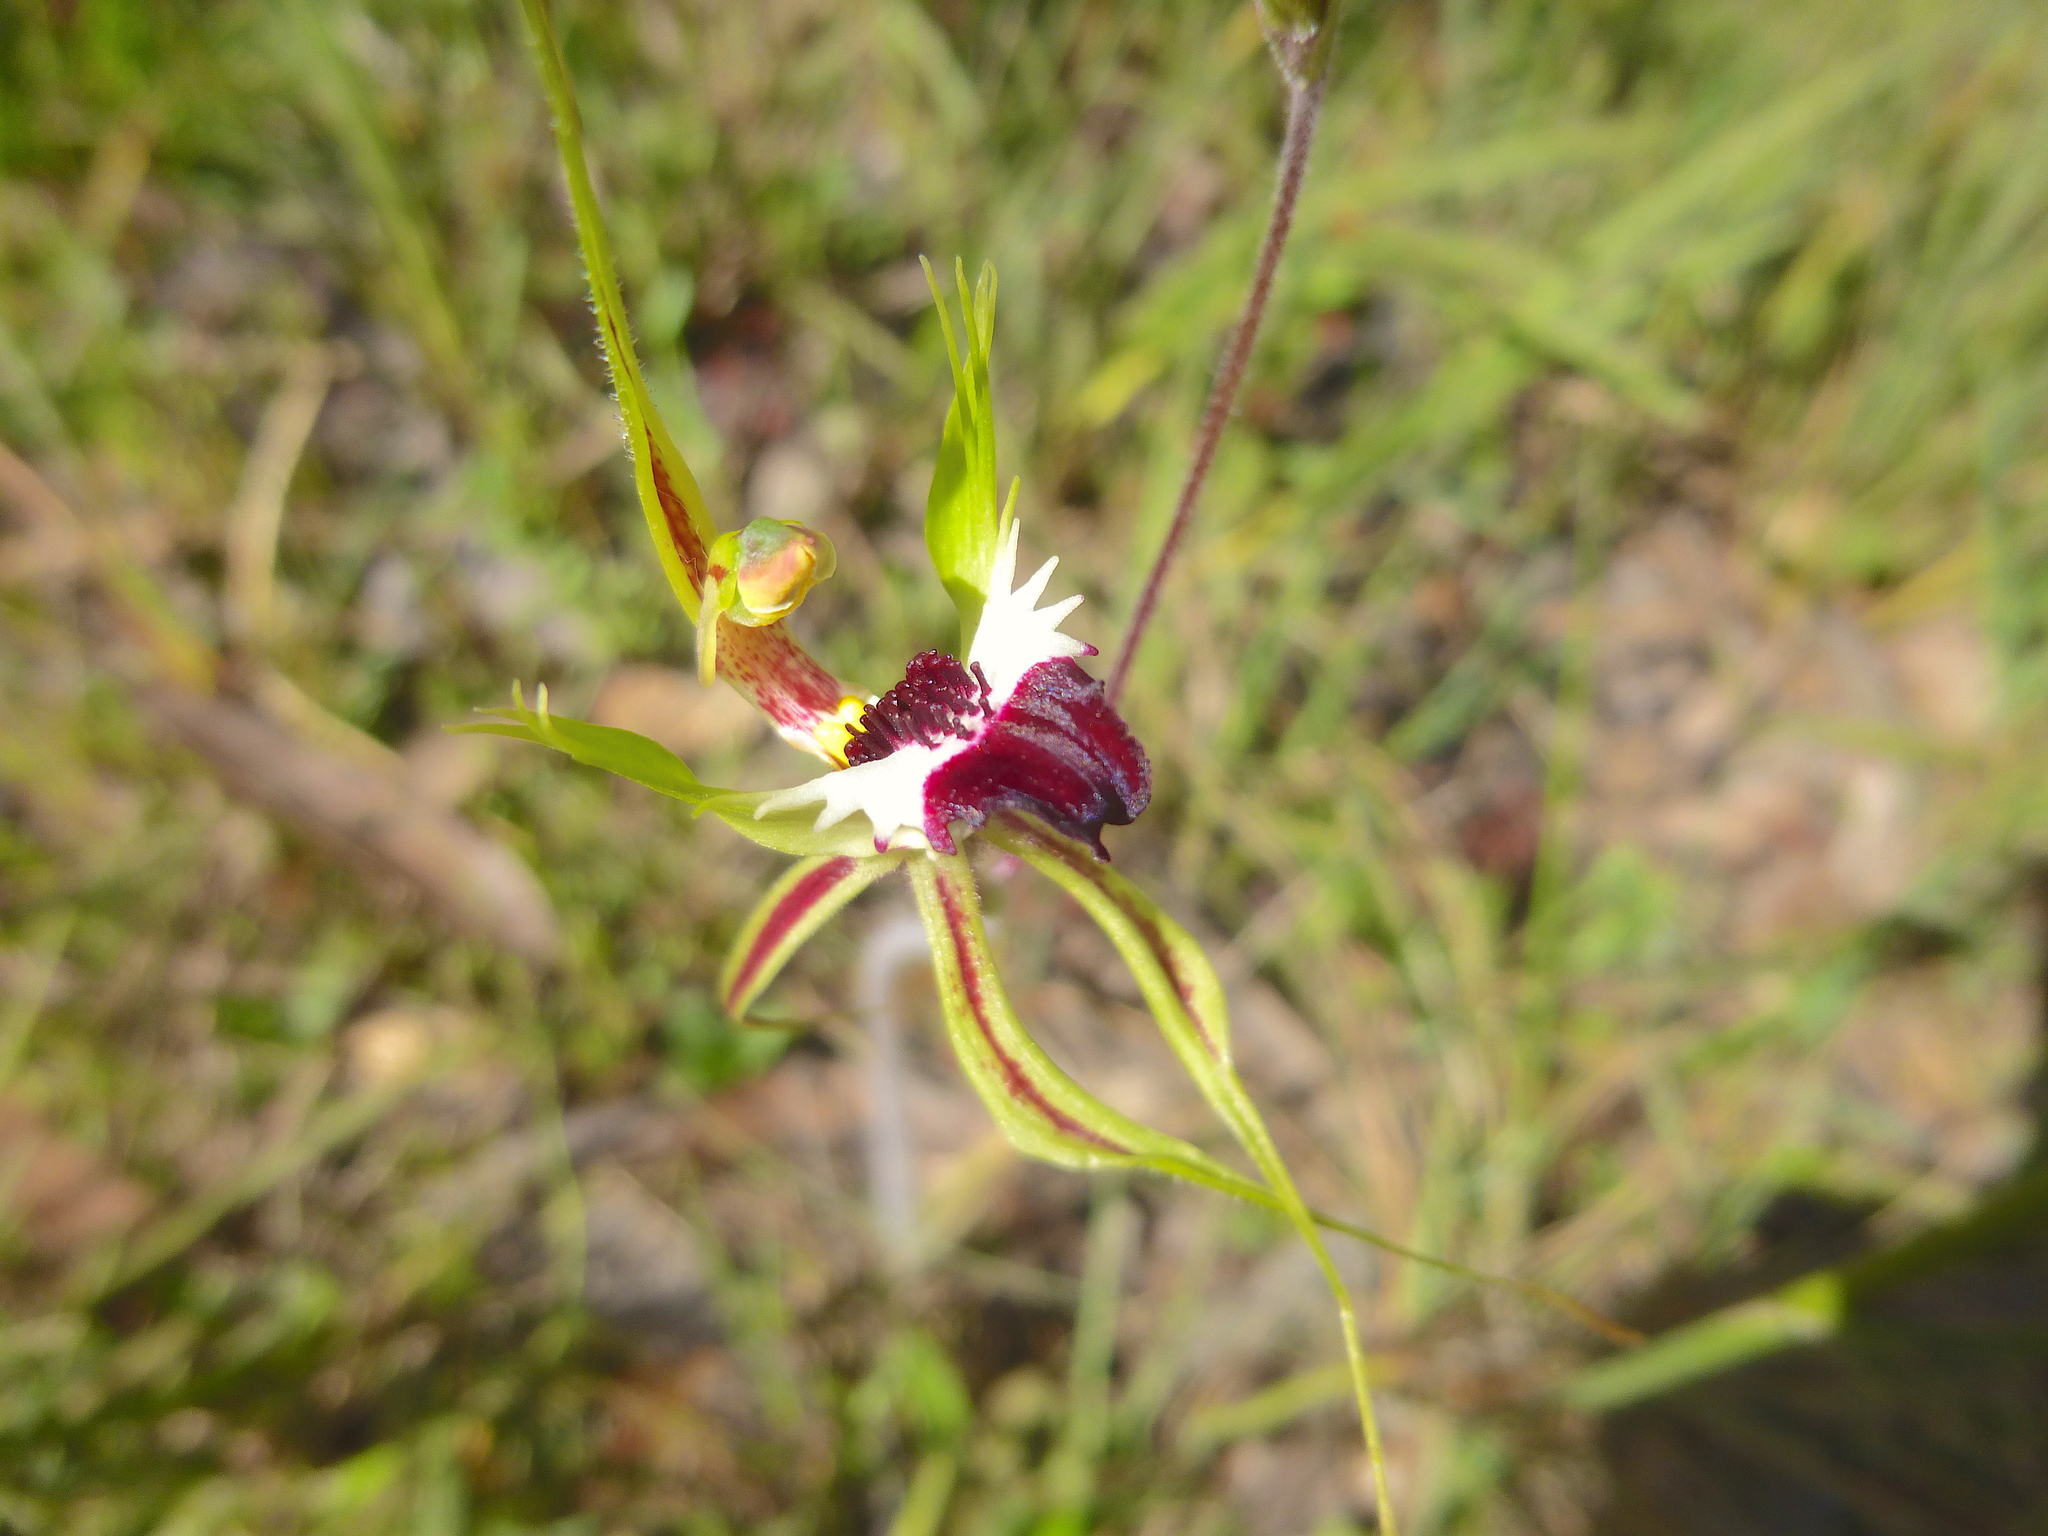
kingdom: Plantae
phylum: Tracheophyta
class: Liliopsida
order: Asparagales
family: Orchidaceae
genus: Caladenia
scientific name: Caladenia tentaculata
